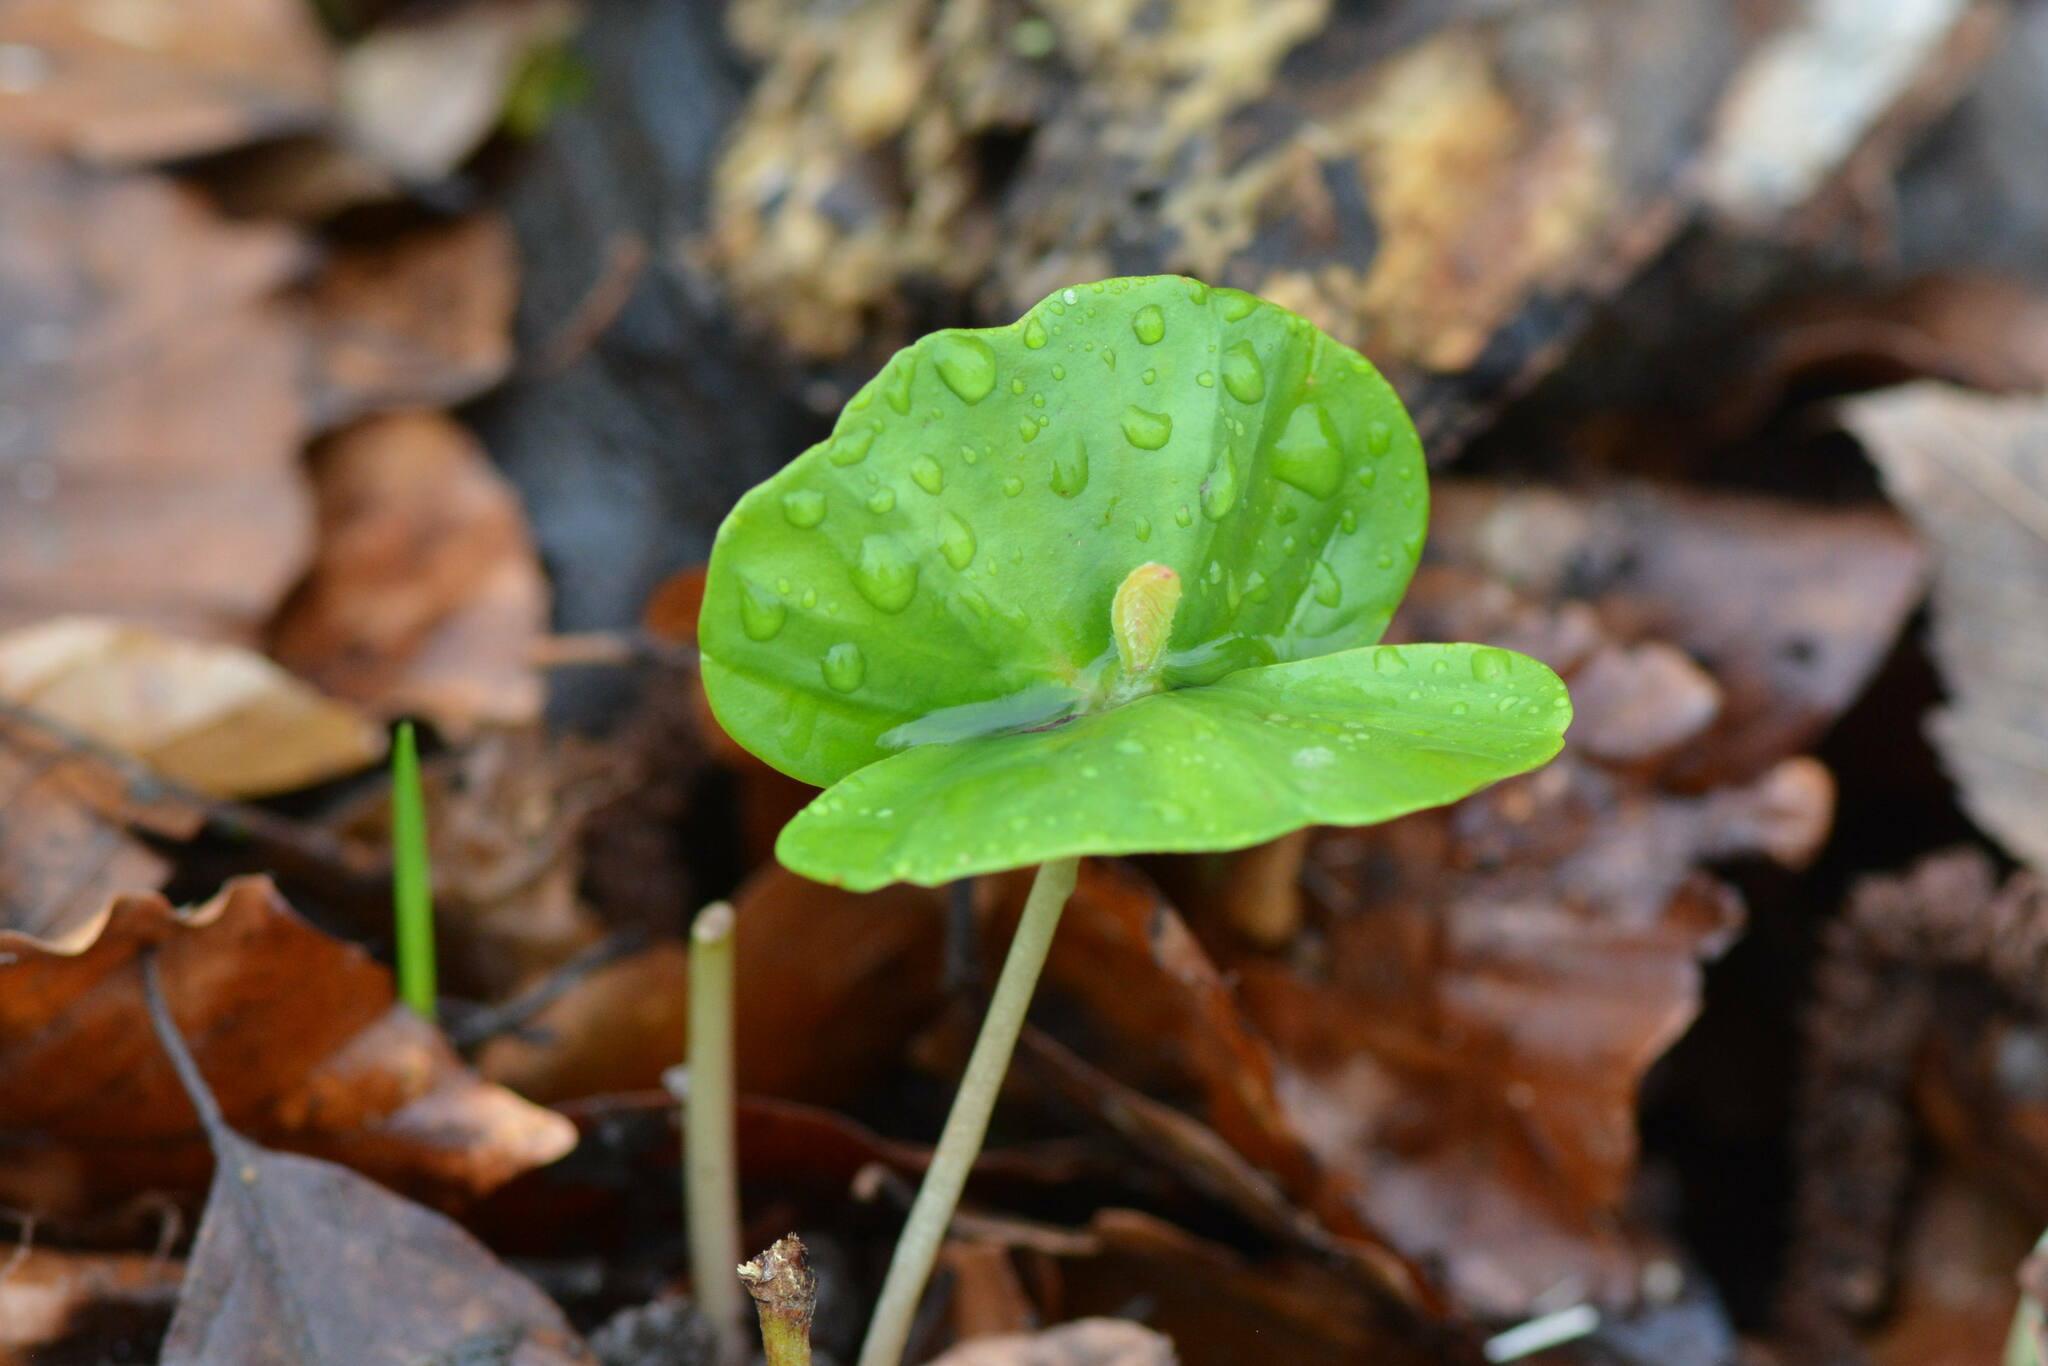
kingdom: Plantae
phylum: Tracheophyta
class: Magnoliopsida
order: Fagales
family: Fagaceae
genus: Fagus
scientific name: Fagus sylvatica
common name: Beech
